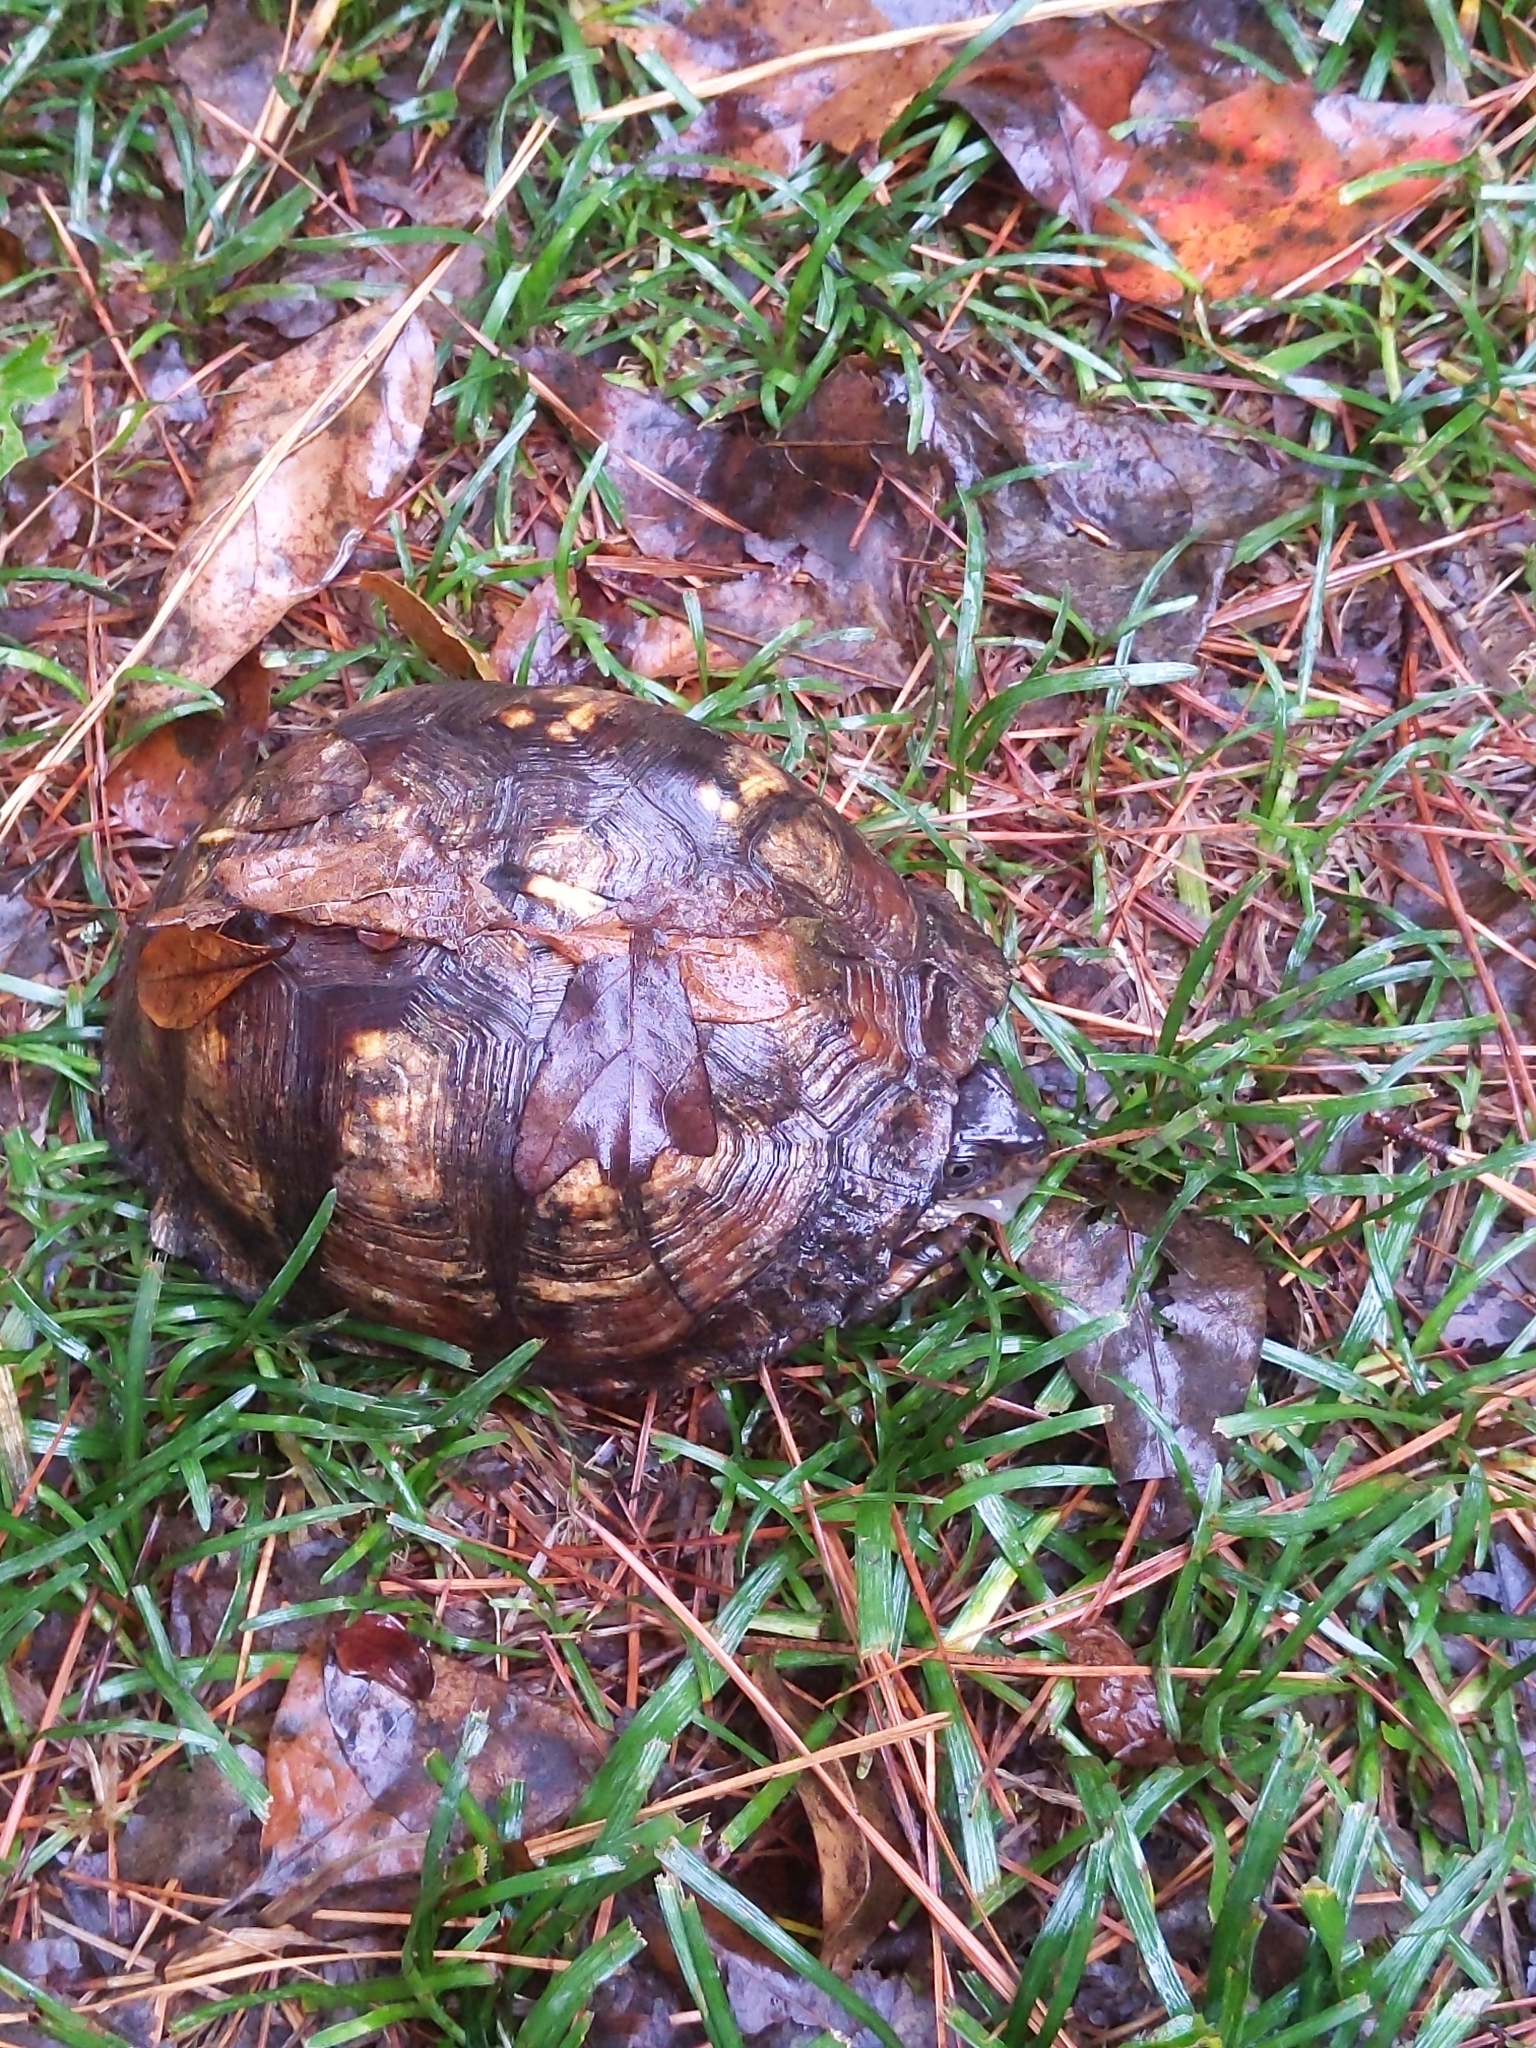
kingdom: Animalia
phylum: Chordata
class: Testudines
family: Emydidae
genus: Terrapene
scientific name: Terrapene carolina
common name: Common box turtle
